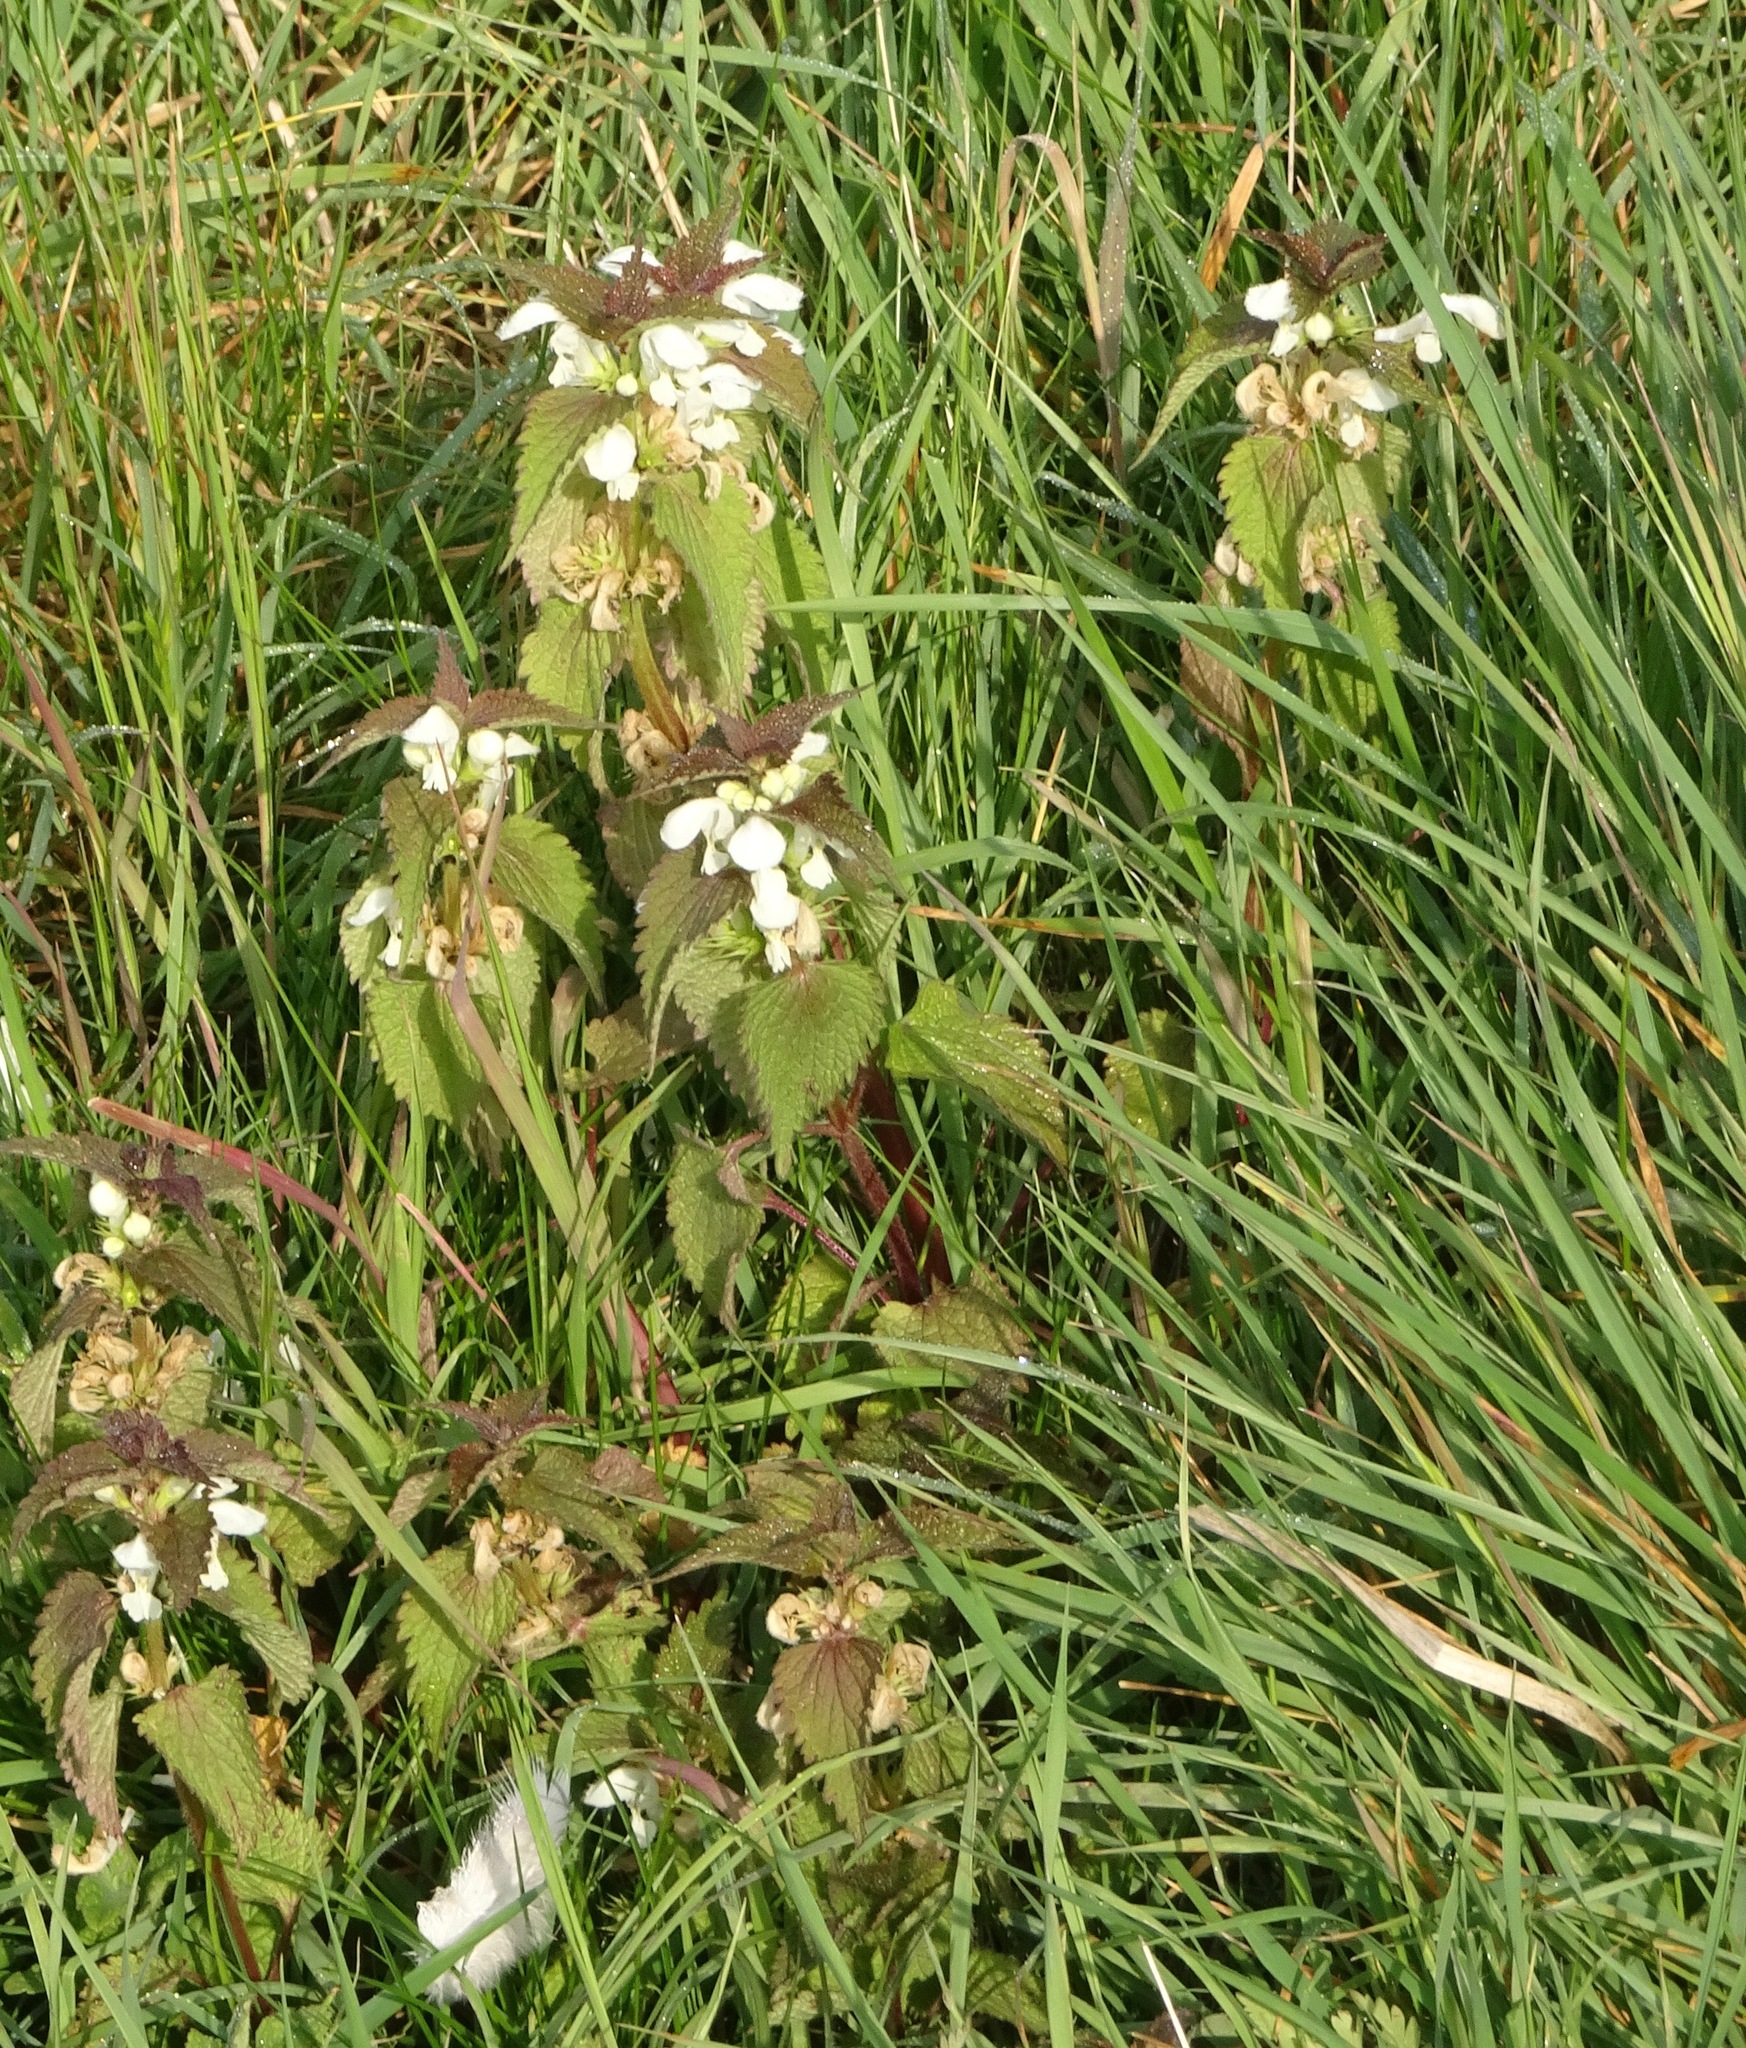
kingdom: Plantae
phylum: Tracheophyta
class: Magnoliopsida
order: Lamiales
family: Lamiaceae
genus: Lamium
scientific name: Lamium album
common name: White dead-nettle
